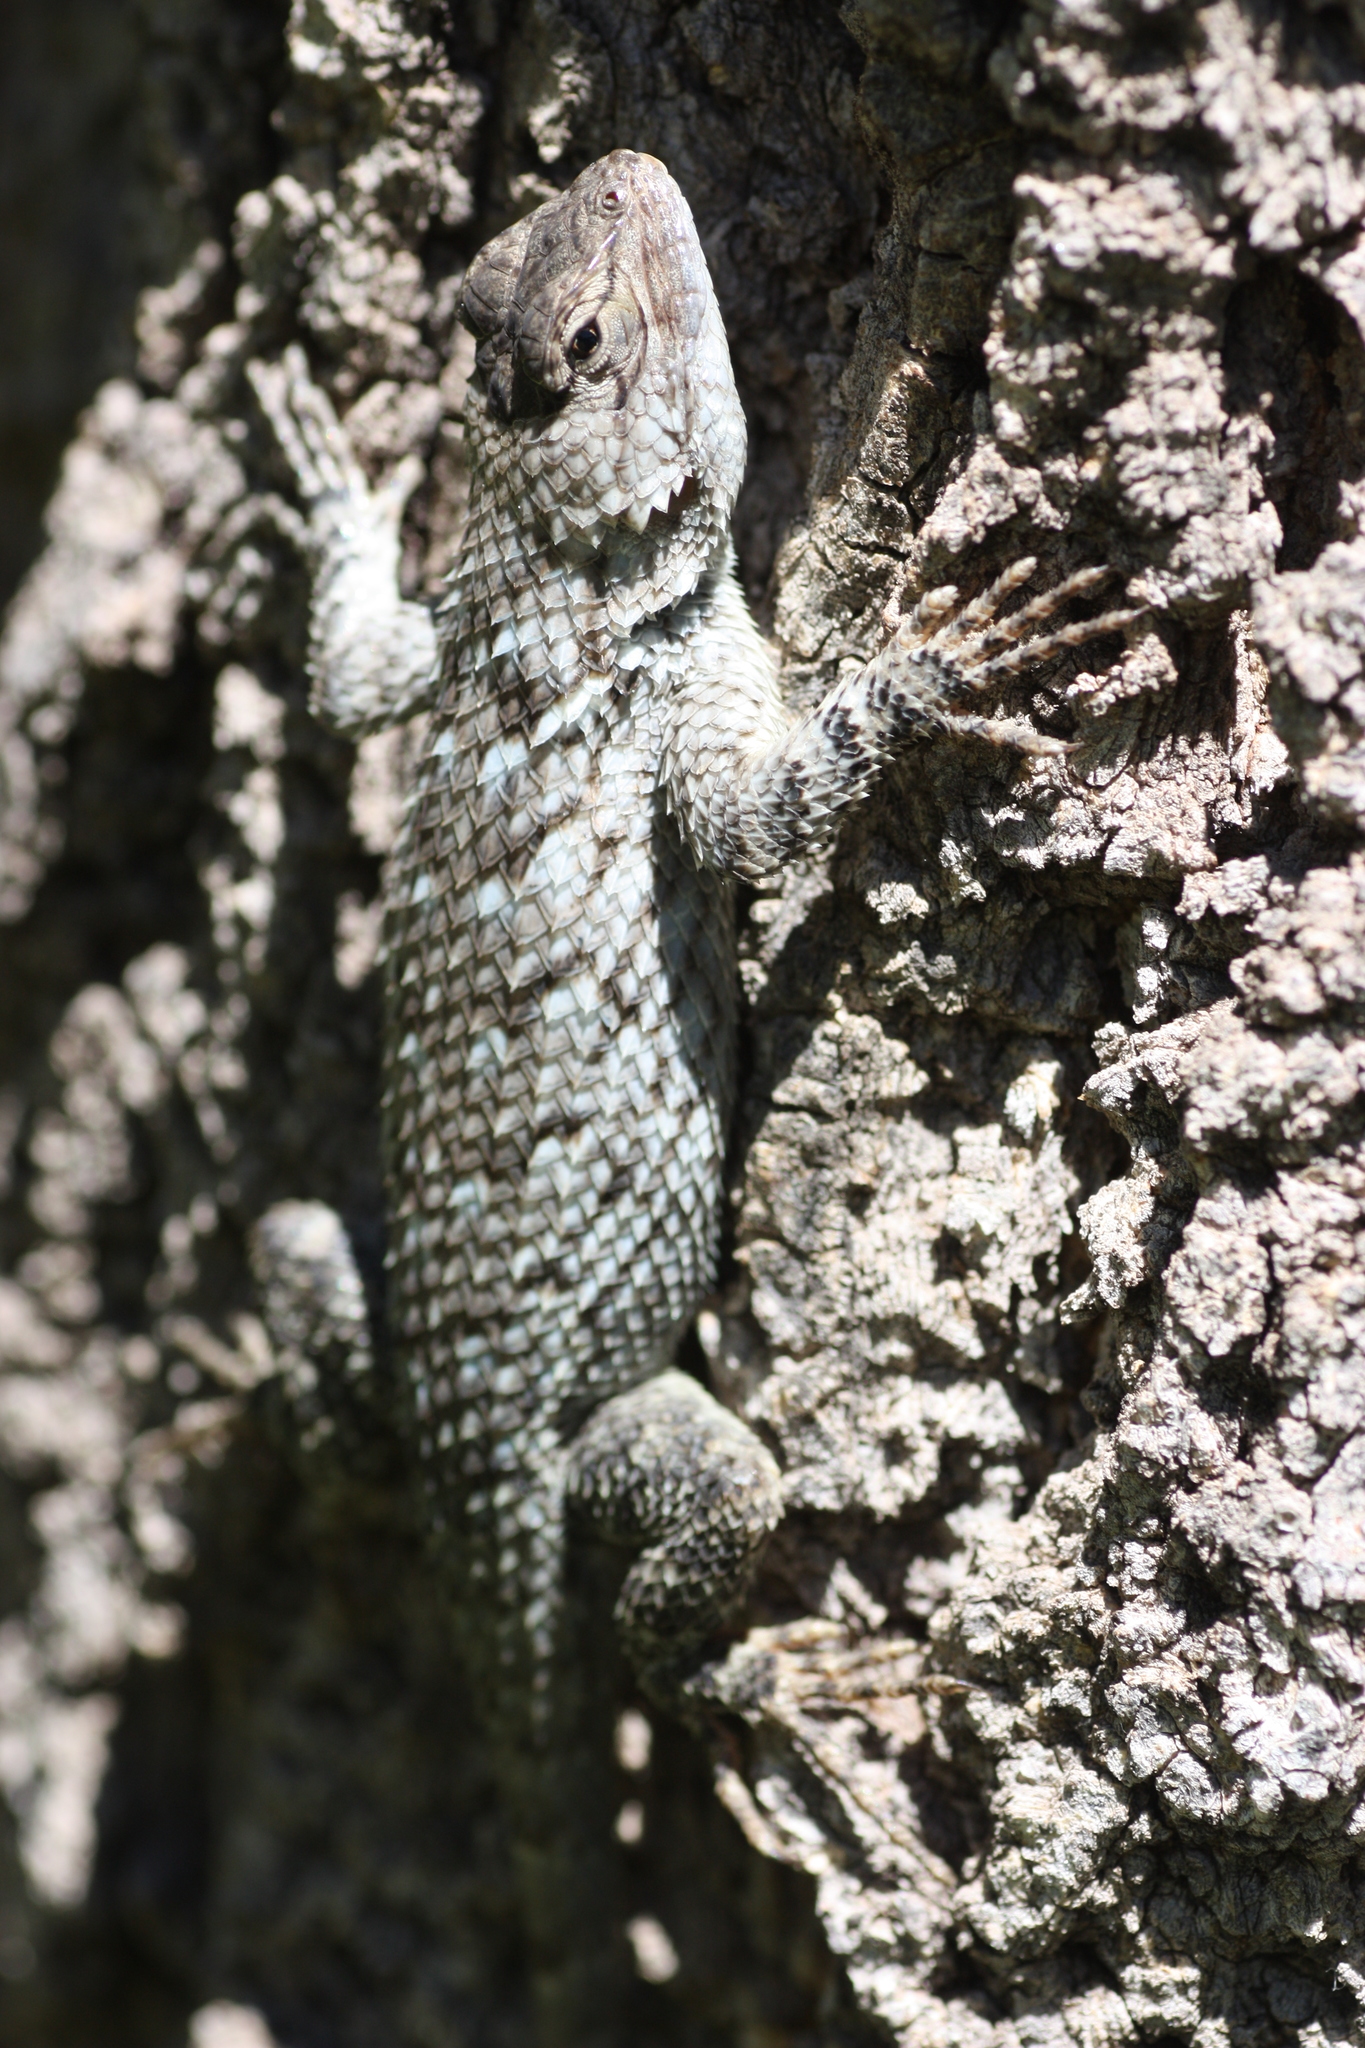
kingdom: Animalia
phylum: Chordata
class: Squamata
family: Phrynosomatidae
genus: Sceloporus
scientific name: Sceloporus clarkii
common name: Clark's spiny lizard
